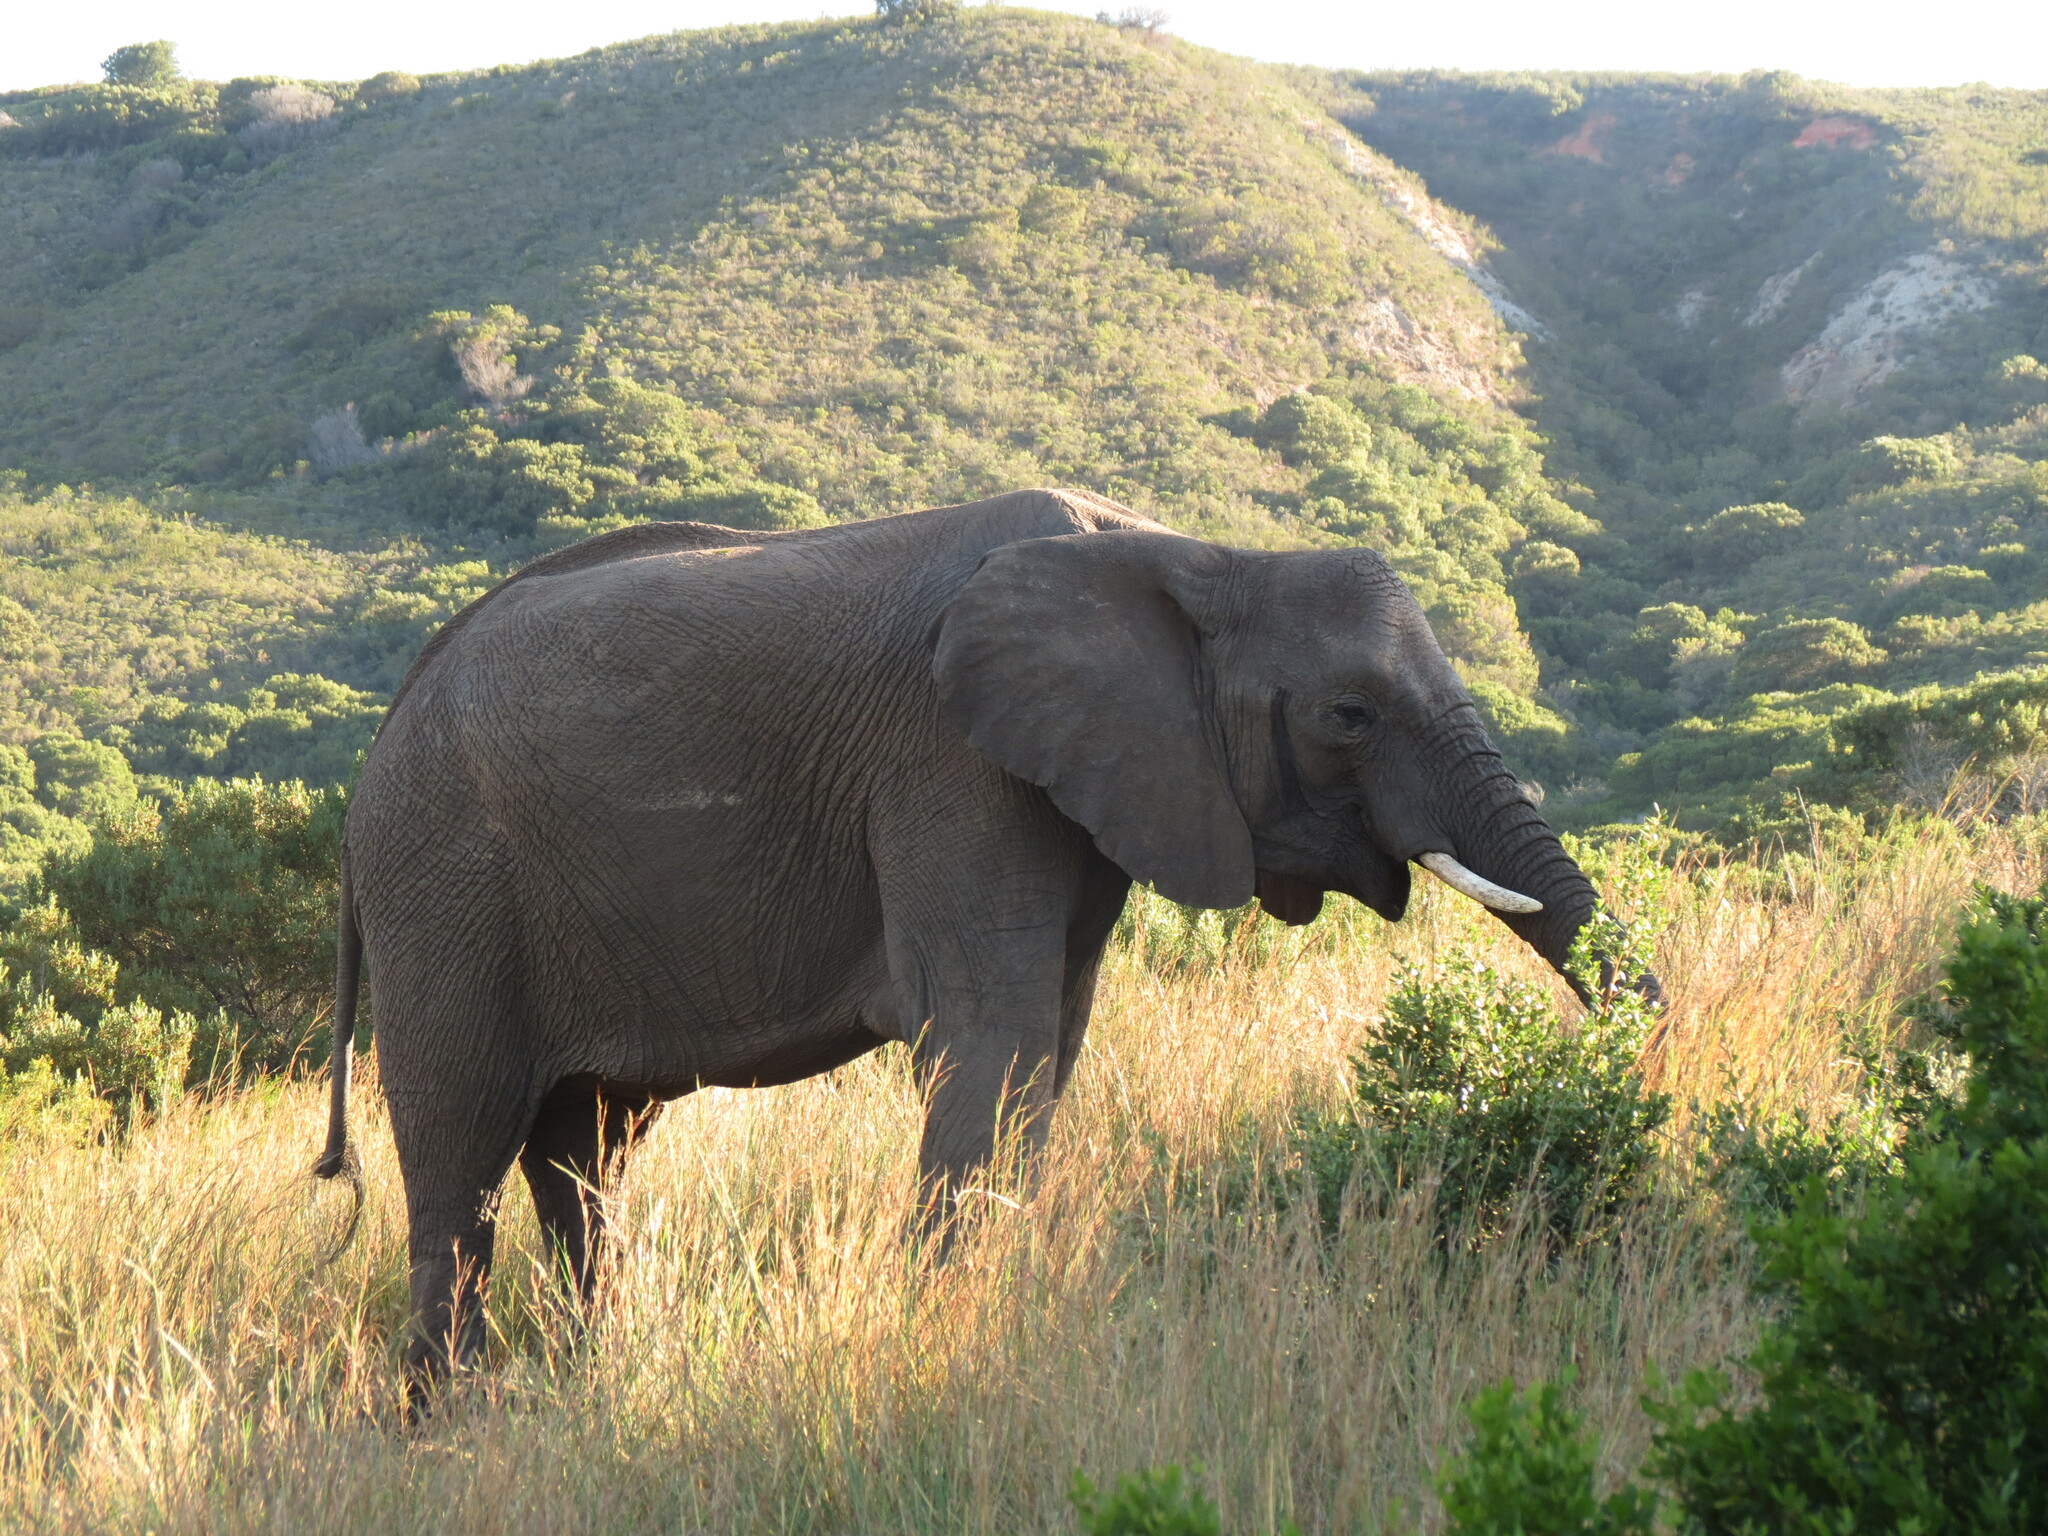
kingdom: Animalia
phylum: Chordata
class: Mammalia
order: Proboscidea
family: Elephantidae
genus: Loxodonta
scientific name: Loxodonta africana
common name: African elephant
